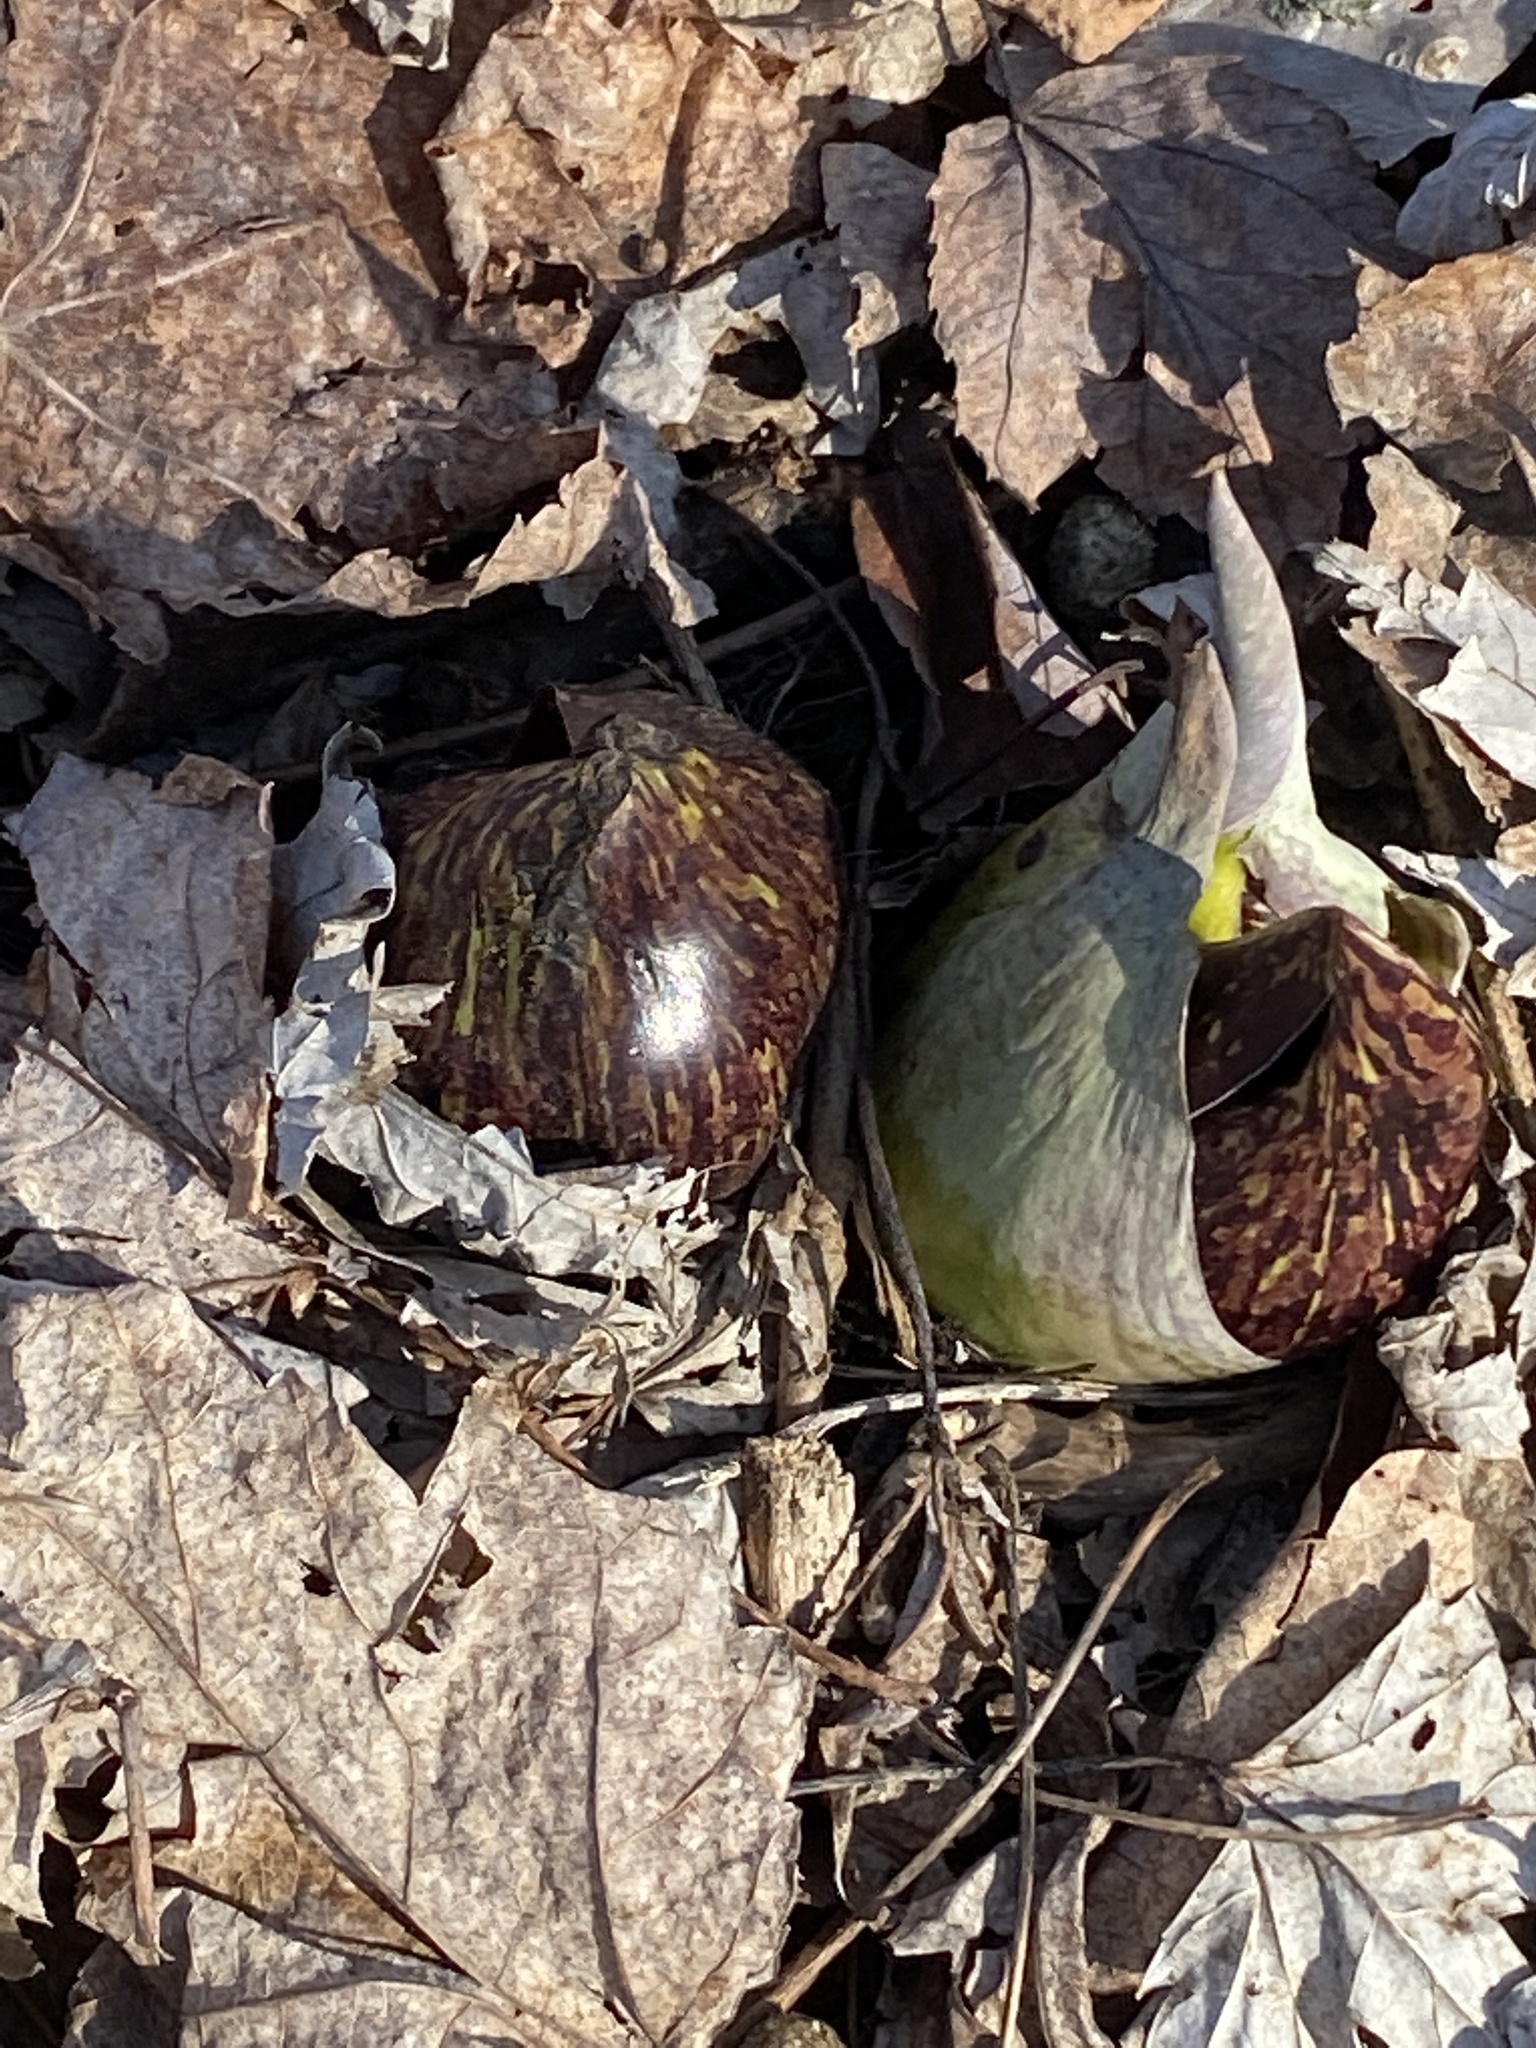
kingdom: Plantae
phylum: Tracheophyta
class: Liliopsida
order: Alismatales
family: Araceae
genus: Symplocarpus
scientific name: Symplocarpus foetidus
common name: Eastern skunk cabbage
